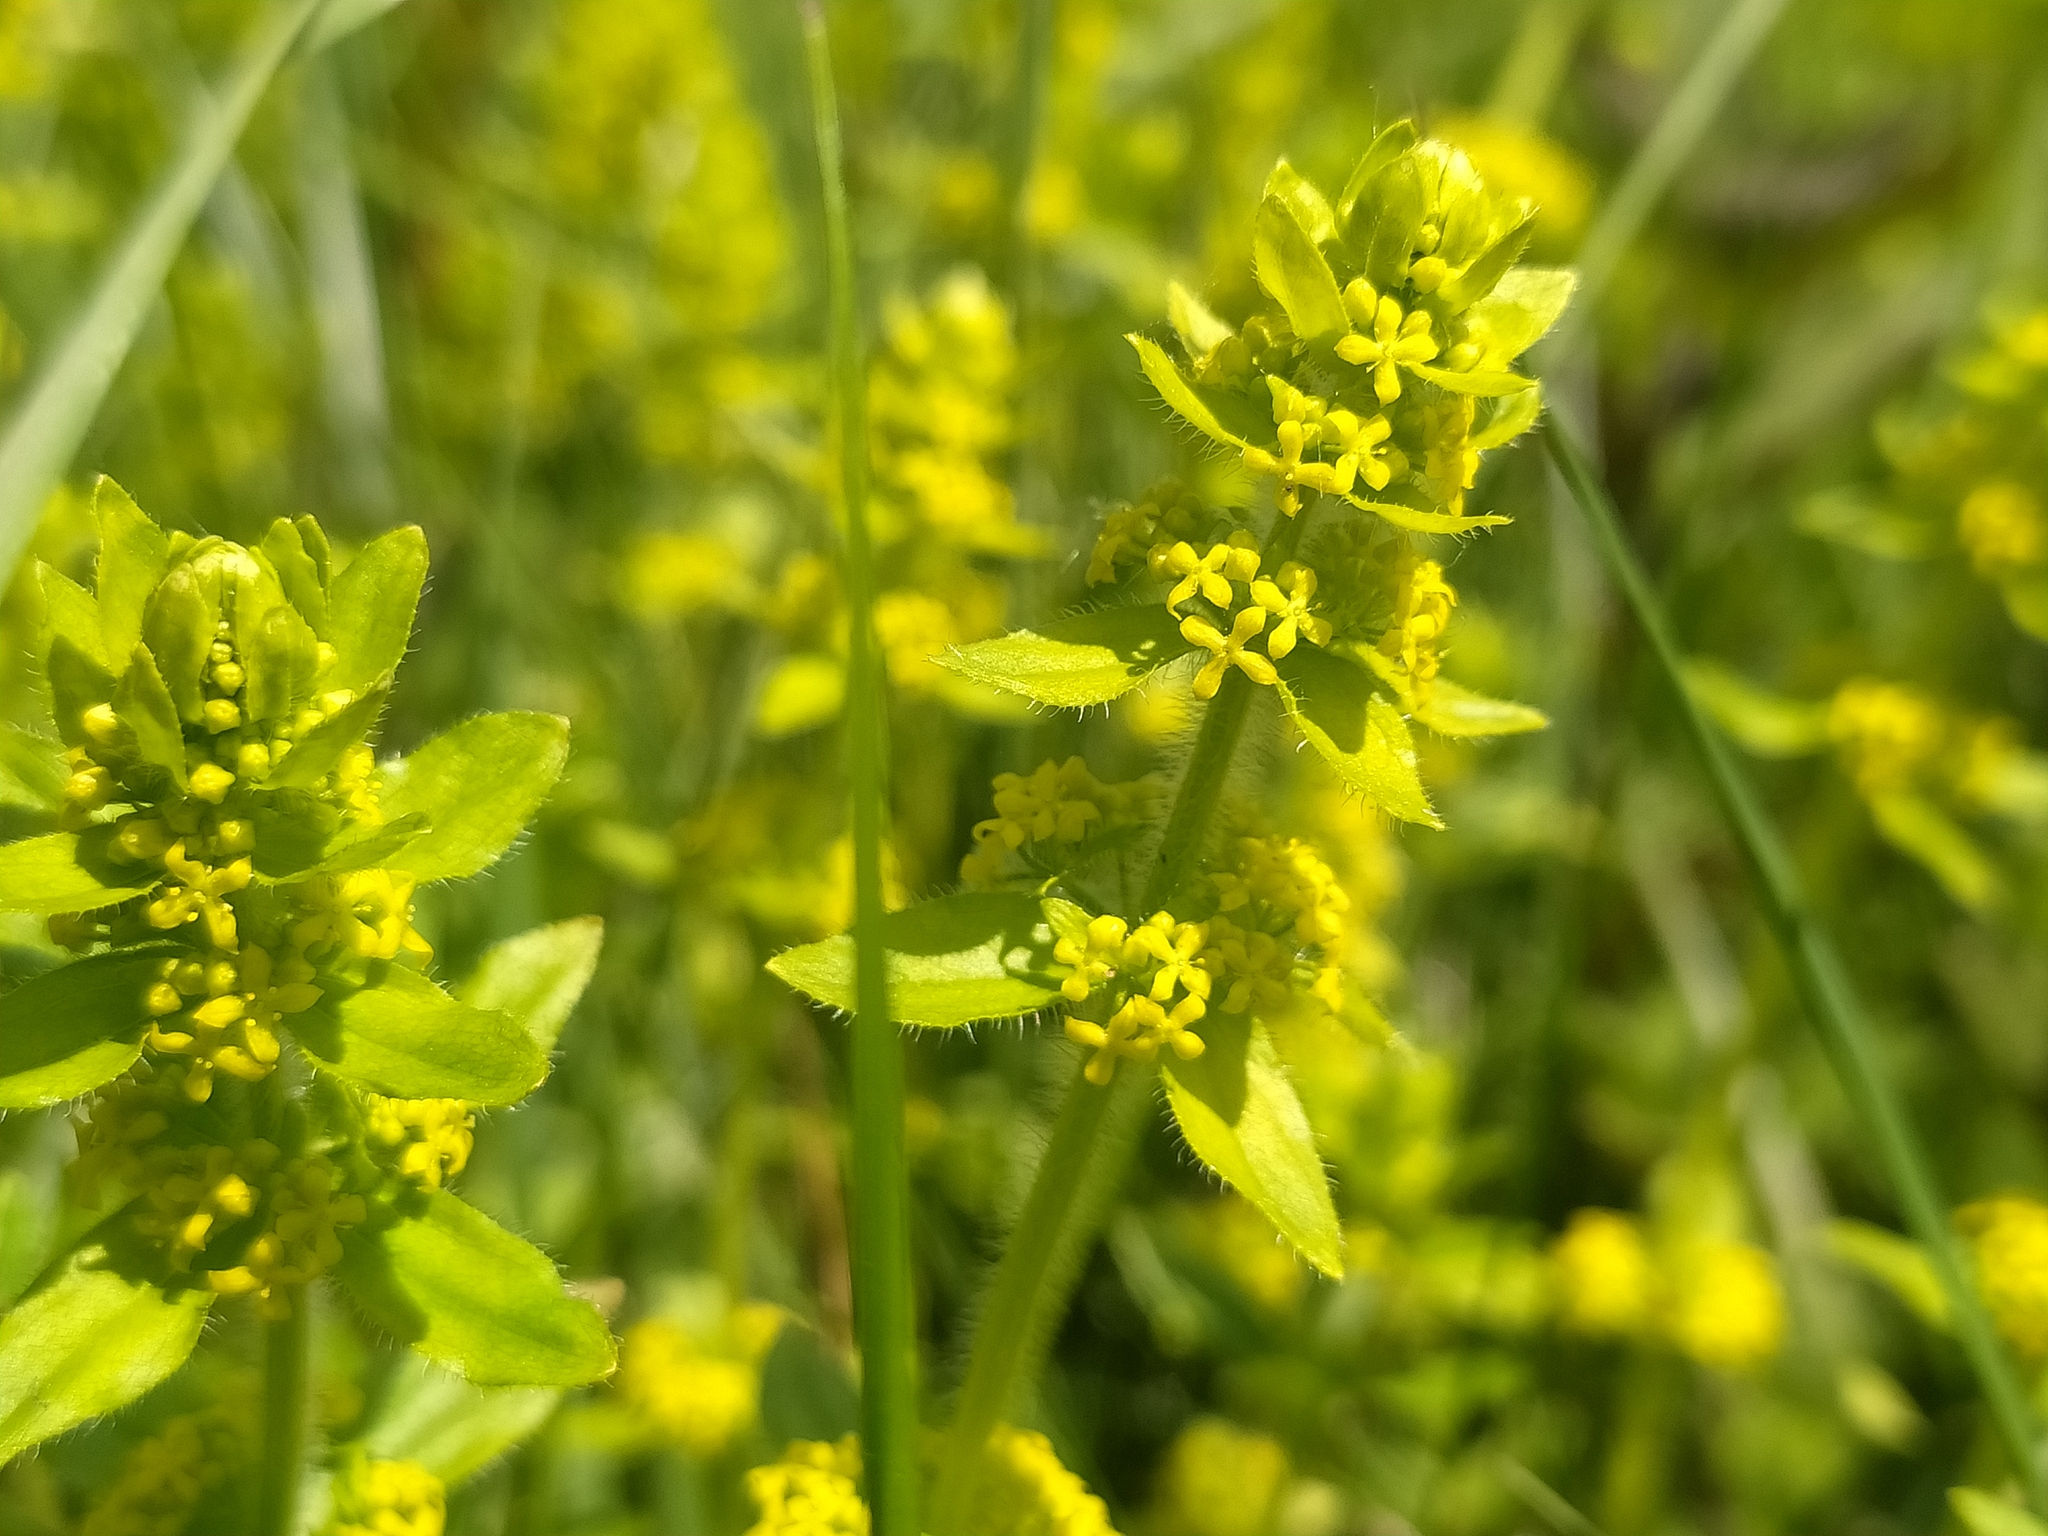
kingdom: Plantae
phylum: Tracheophyta
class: Magnoliopsida
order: Gentianales
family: Rubiaceae
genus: Cruciata
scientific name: Cruciata laevipes
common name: Crosswort
